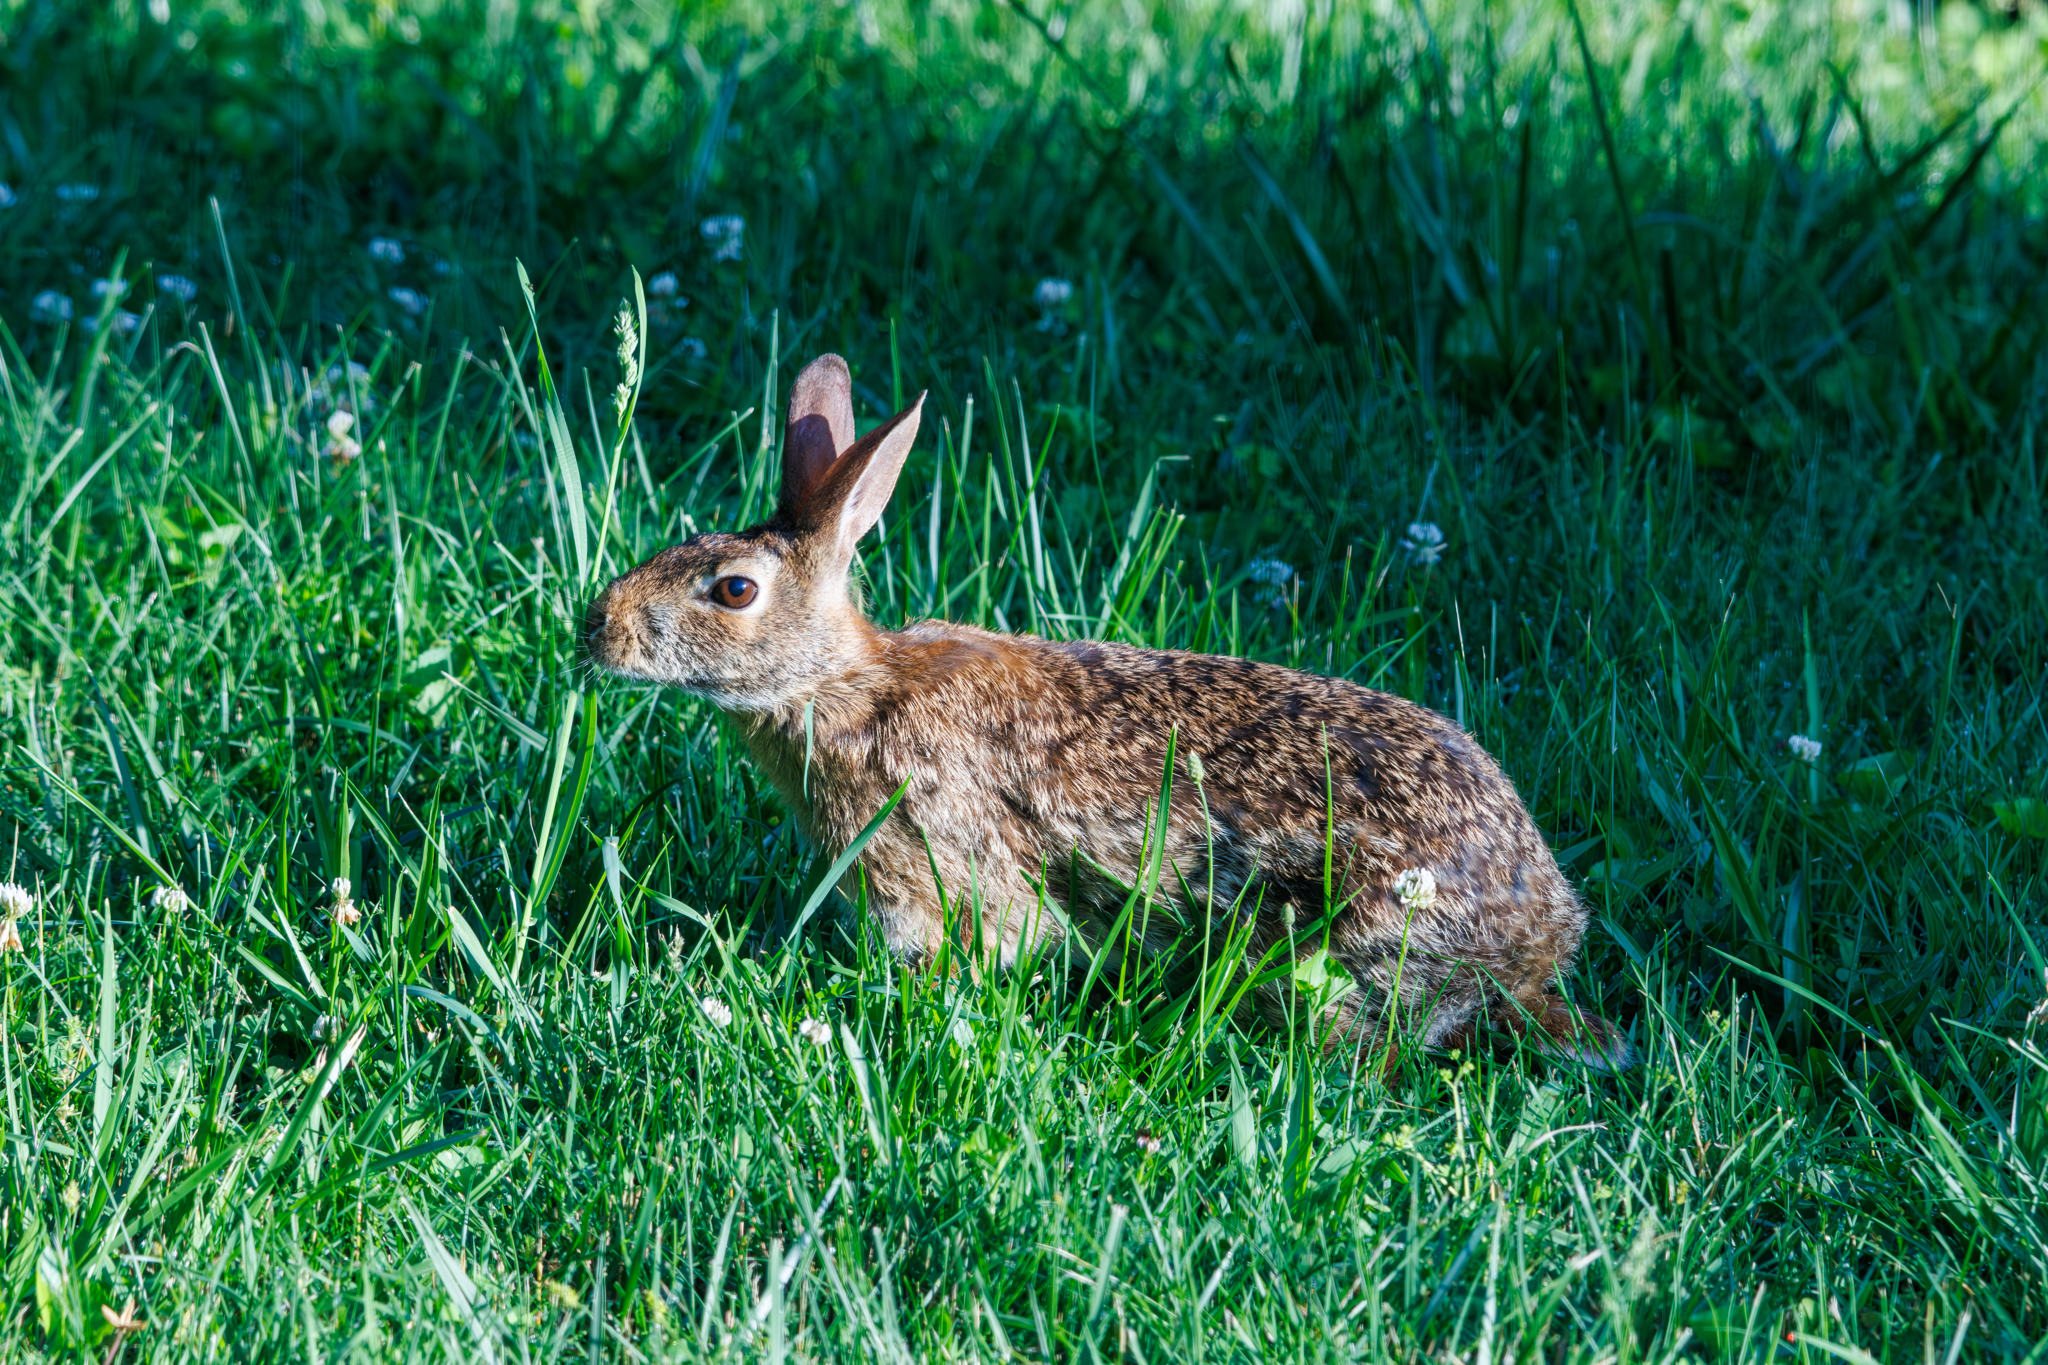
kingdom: Animalia
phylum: Chordata
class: Mammalia
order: Lagomorpha
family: Leporidae
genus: Sylvilagus
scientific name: Sylvilagus floridanus
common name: Eastern cottontail
